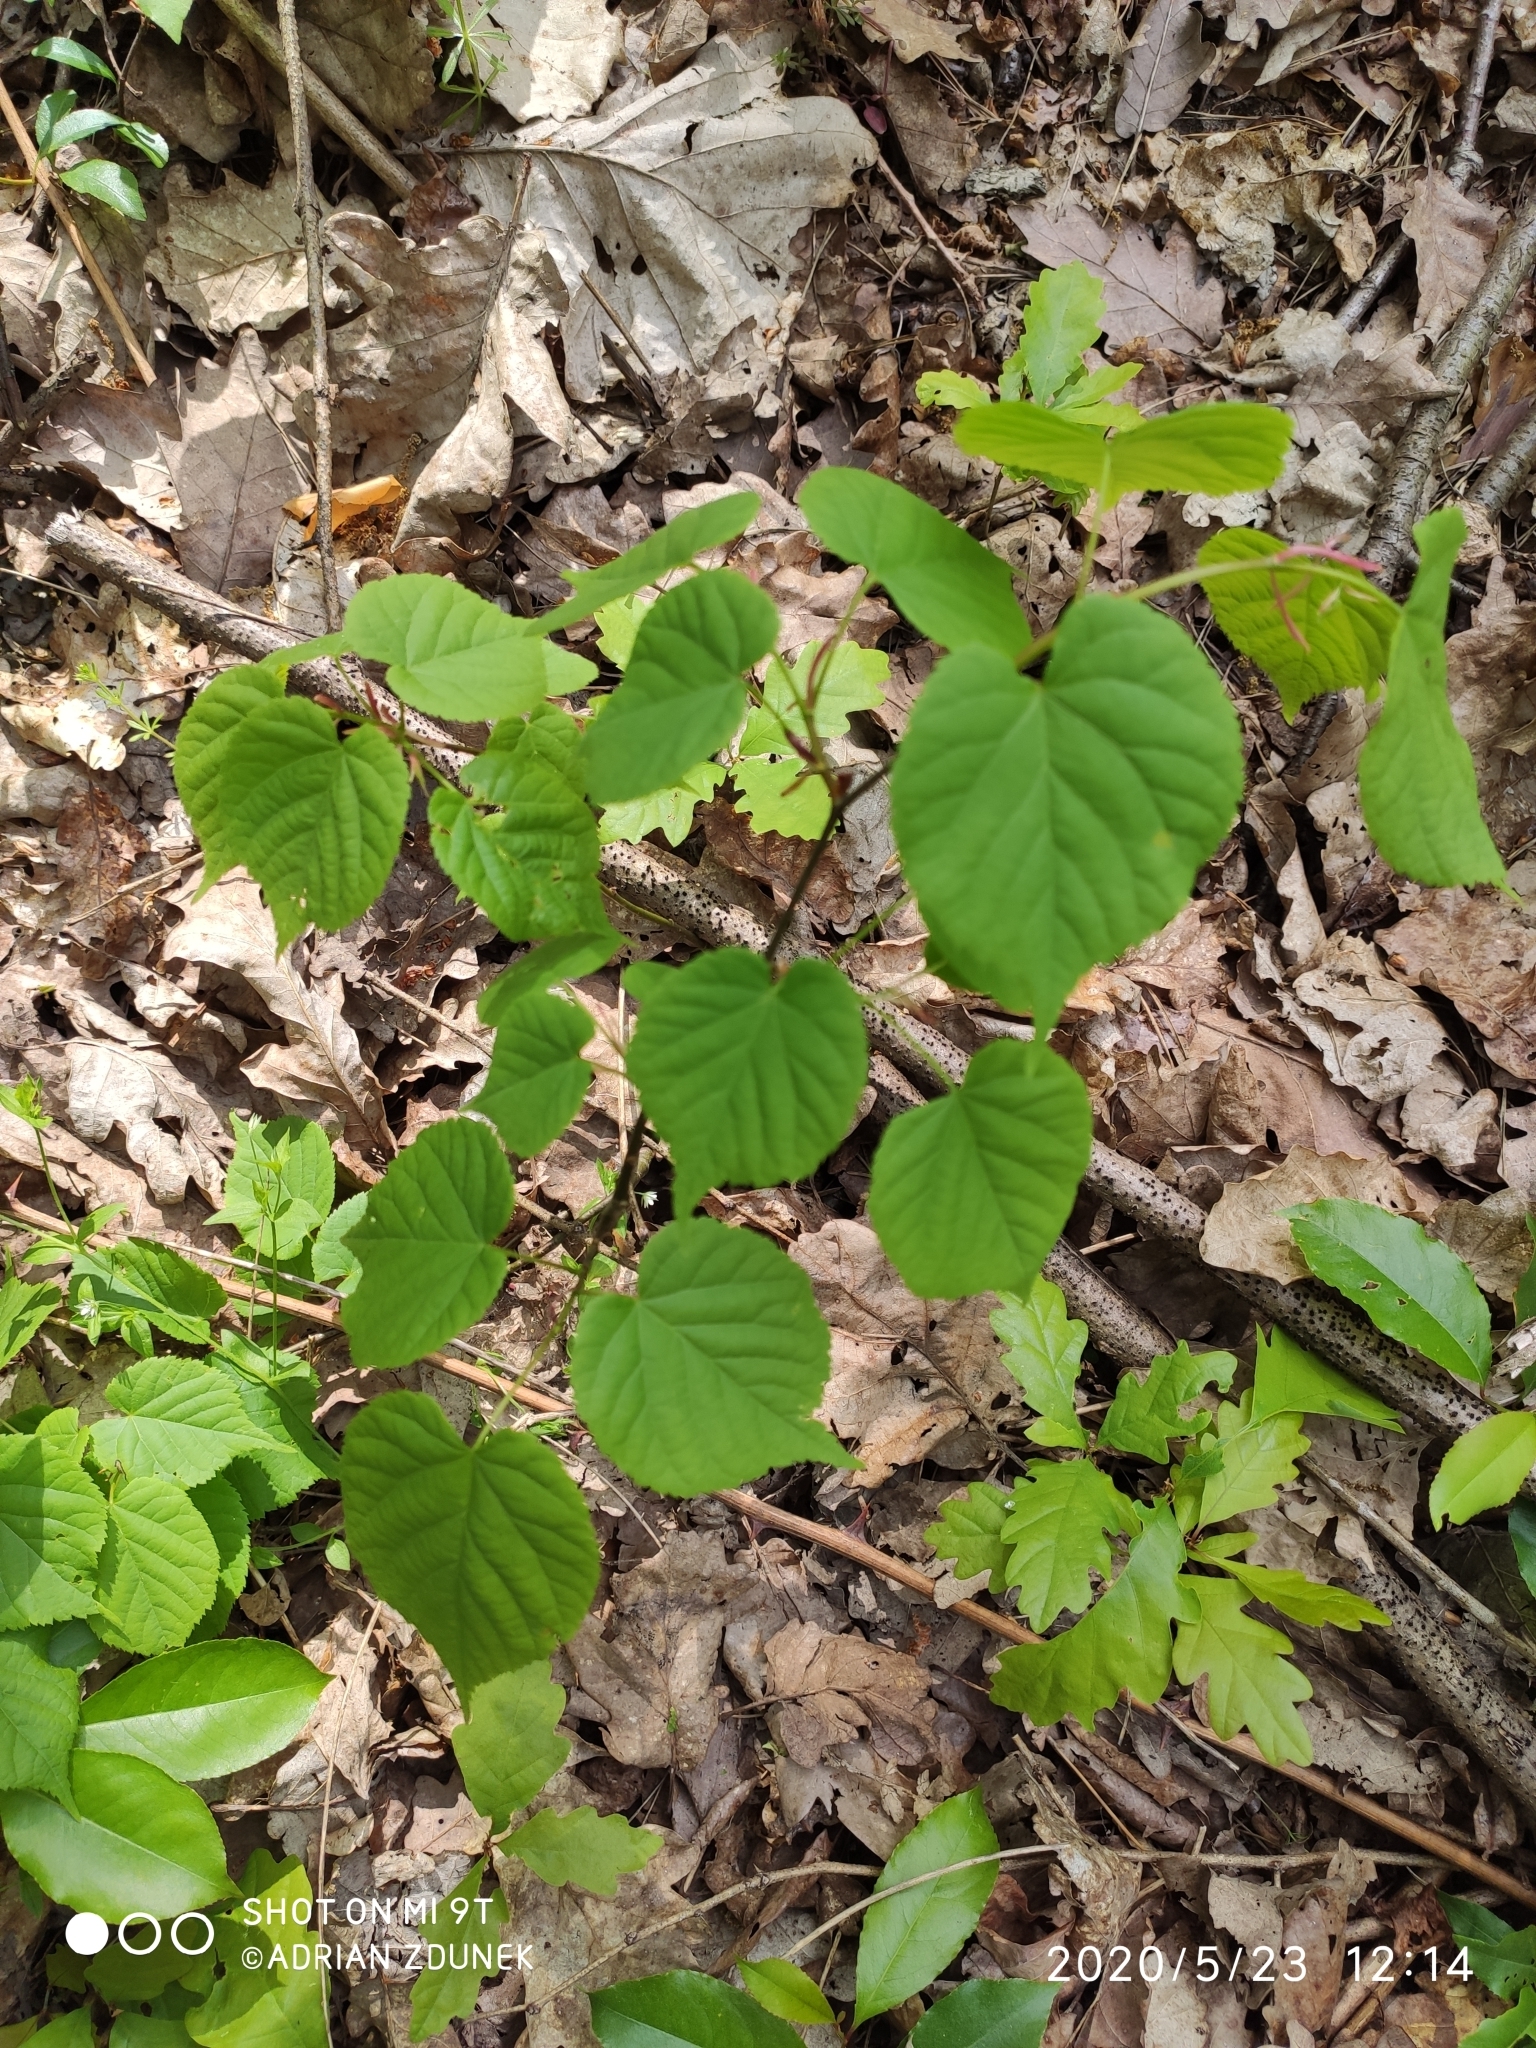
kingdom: Plantae
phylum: Tracheophyta
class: Magnoliopsida
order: Malvales
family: Malvaceae
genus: Tilia
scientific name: Tilia platyphyllos
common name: Large-leaved lime
